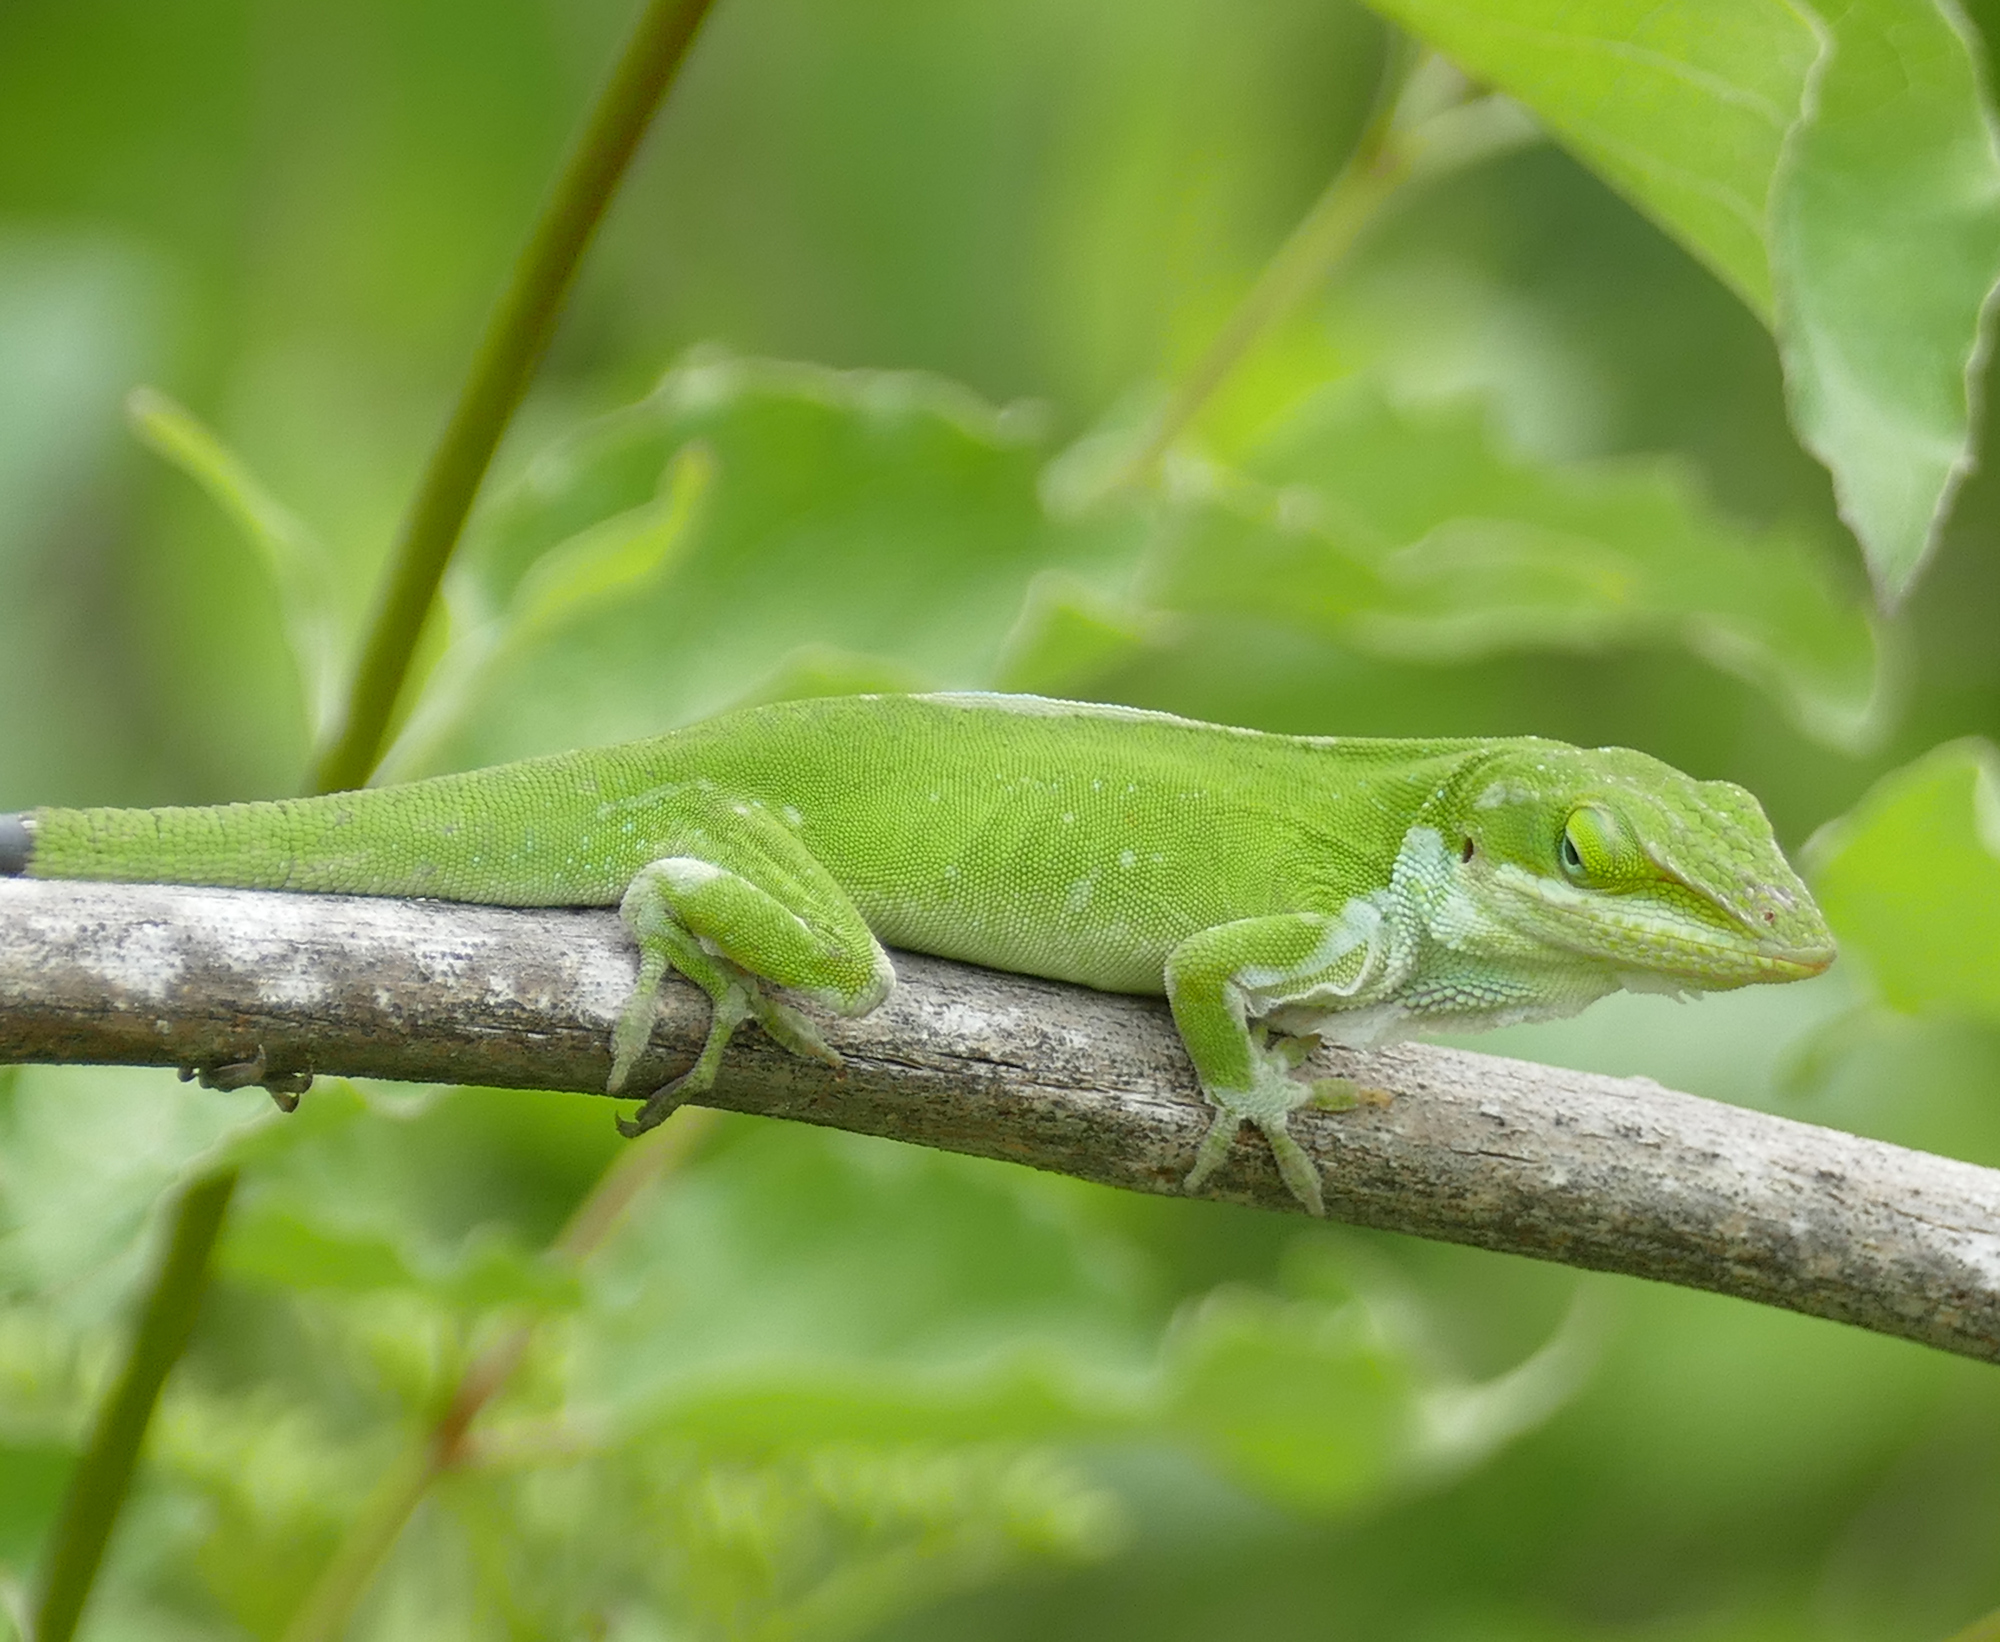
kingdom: Animalia
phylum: Chordata
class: Squamata
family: Dactyloidae
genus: Anolis
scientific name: Anolis carolinensis
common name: Green anole
